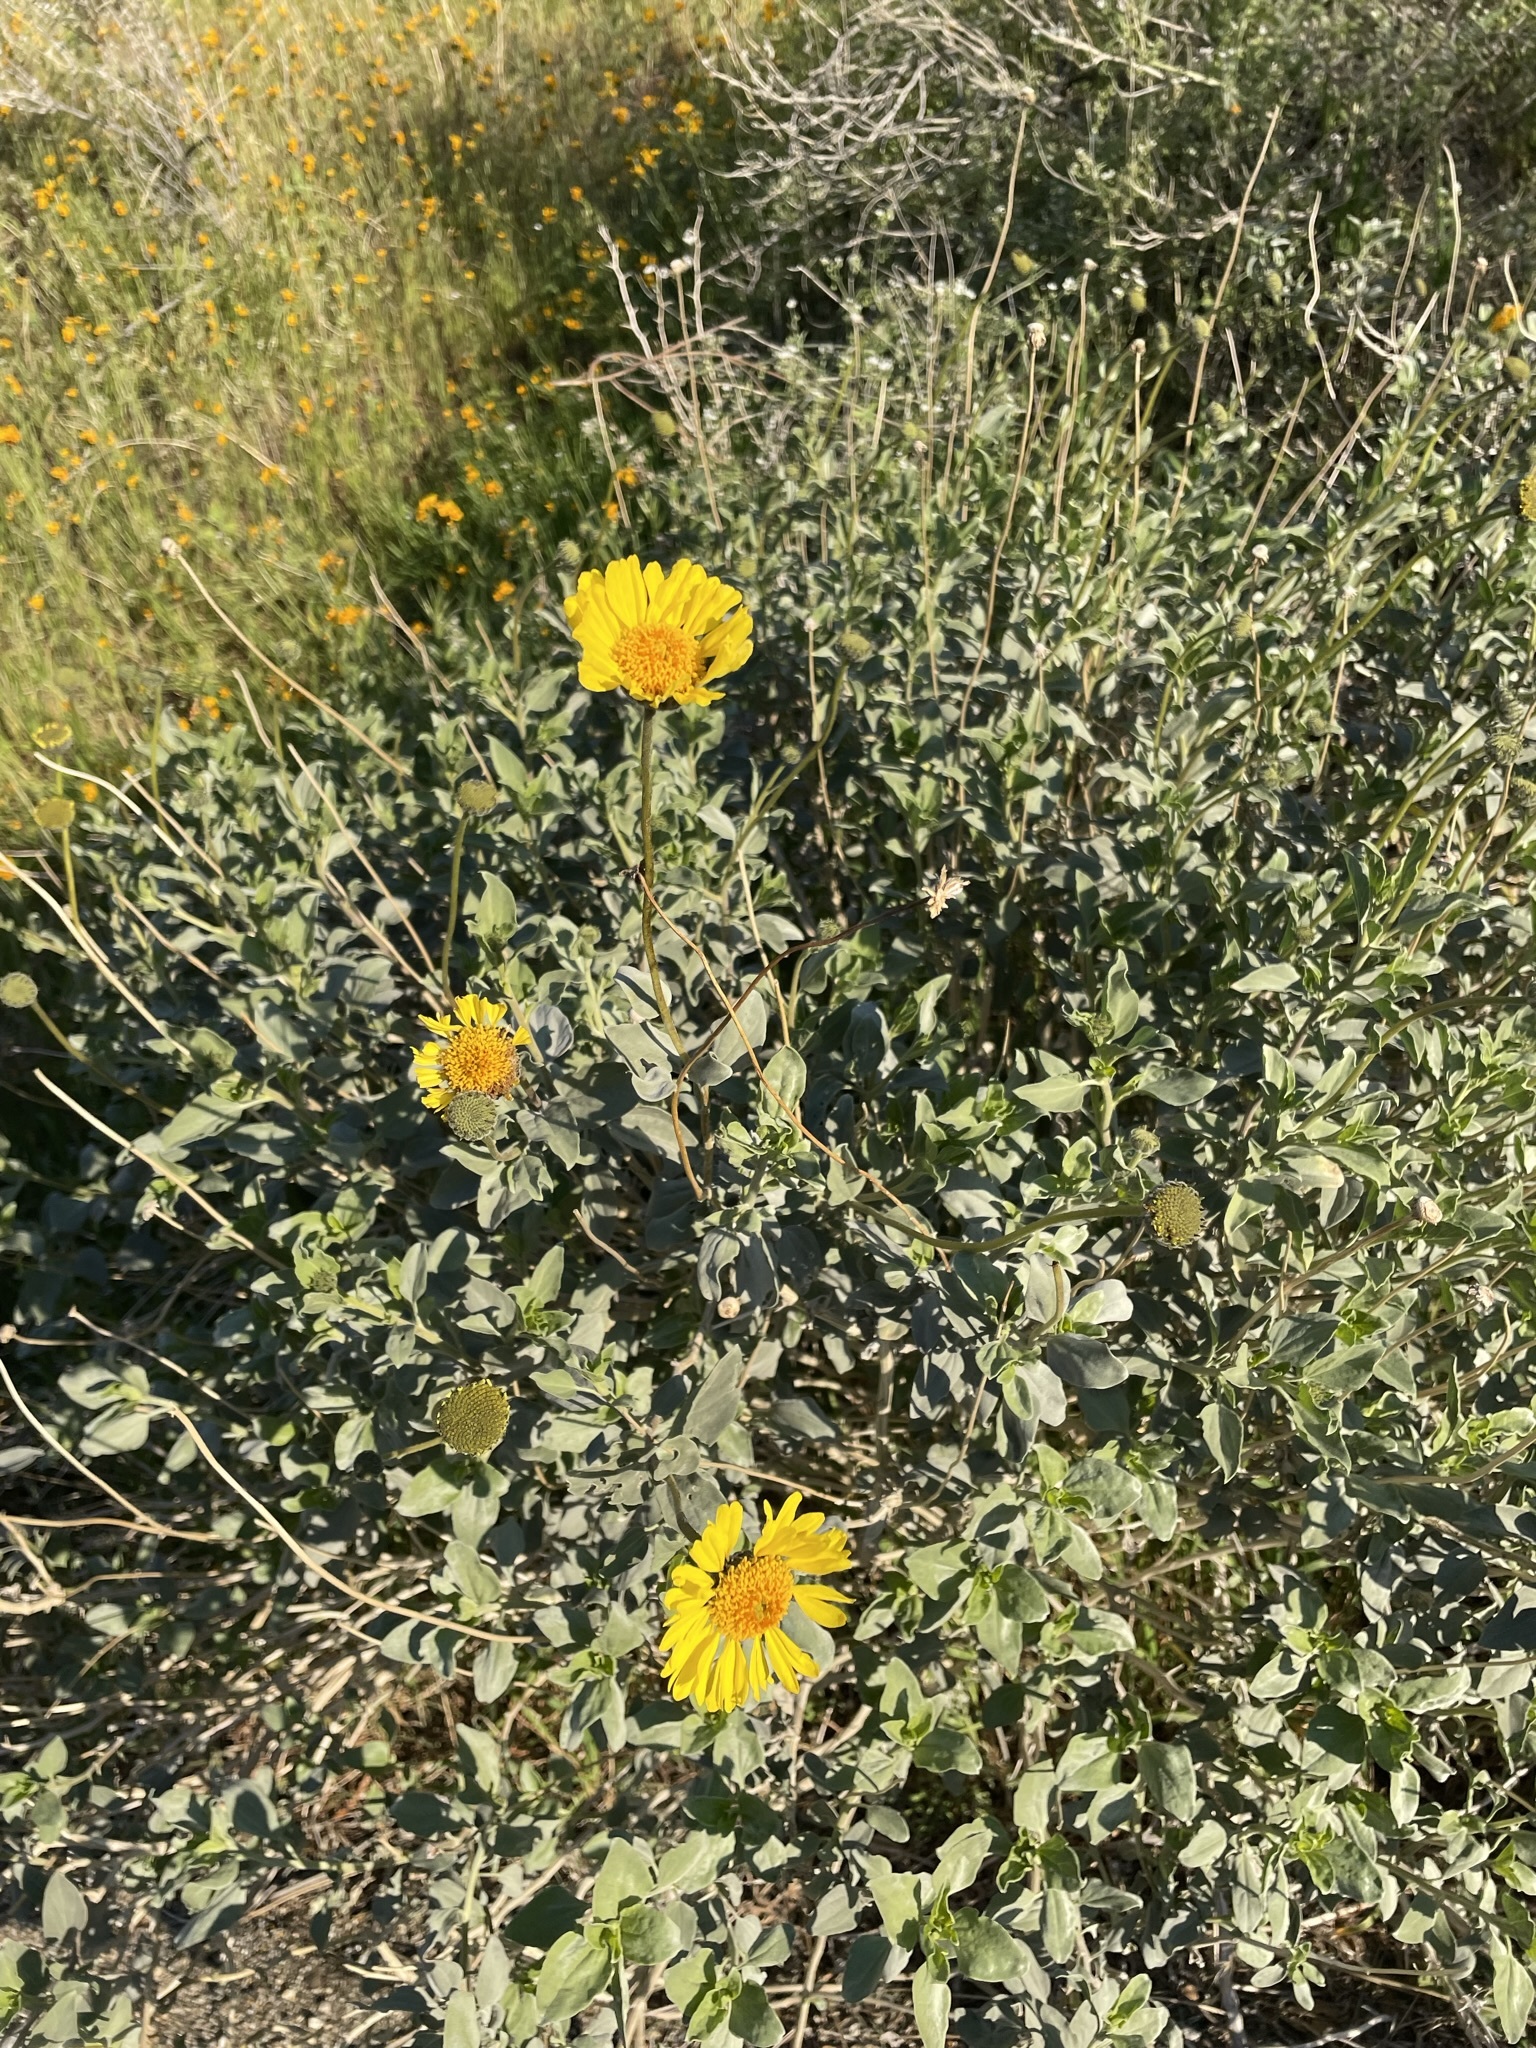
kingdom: Plantae
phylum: Tracheophyta
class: Magnoliopsida
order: Asterales
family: Asteraceae
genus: Encelia
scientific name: Encelia actoni
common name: Acton encelia
